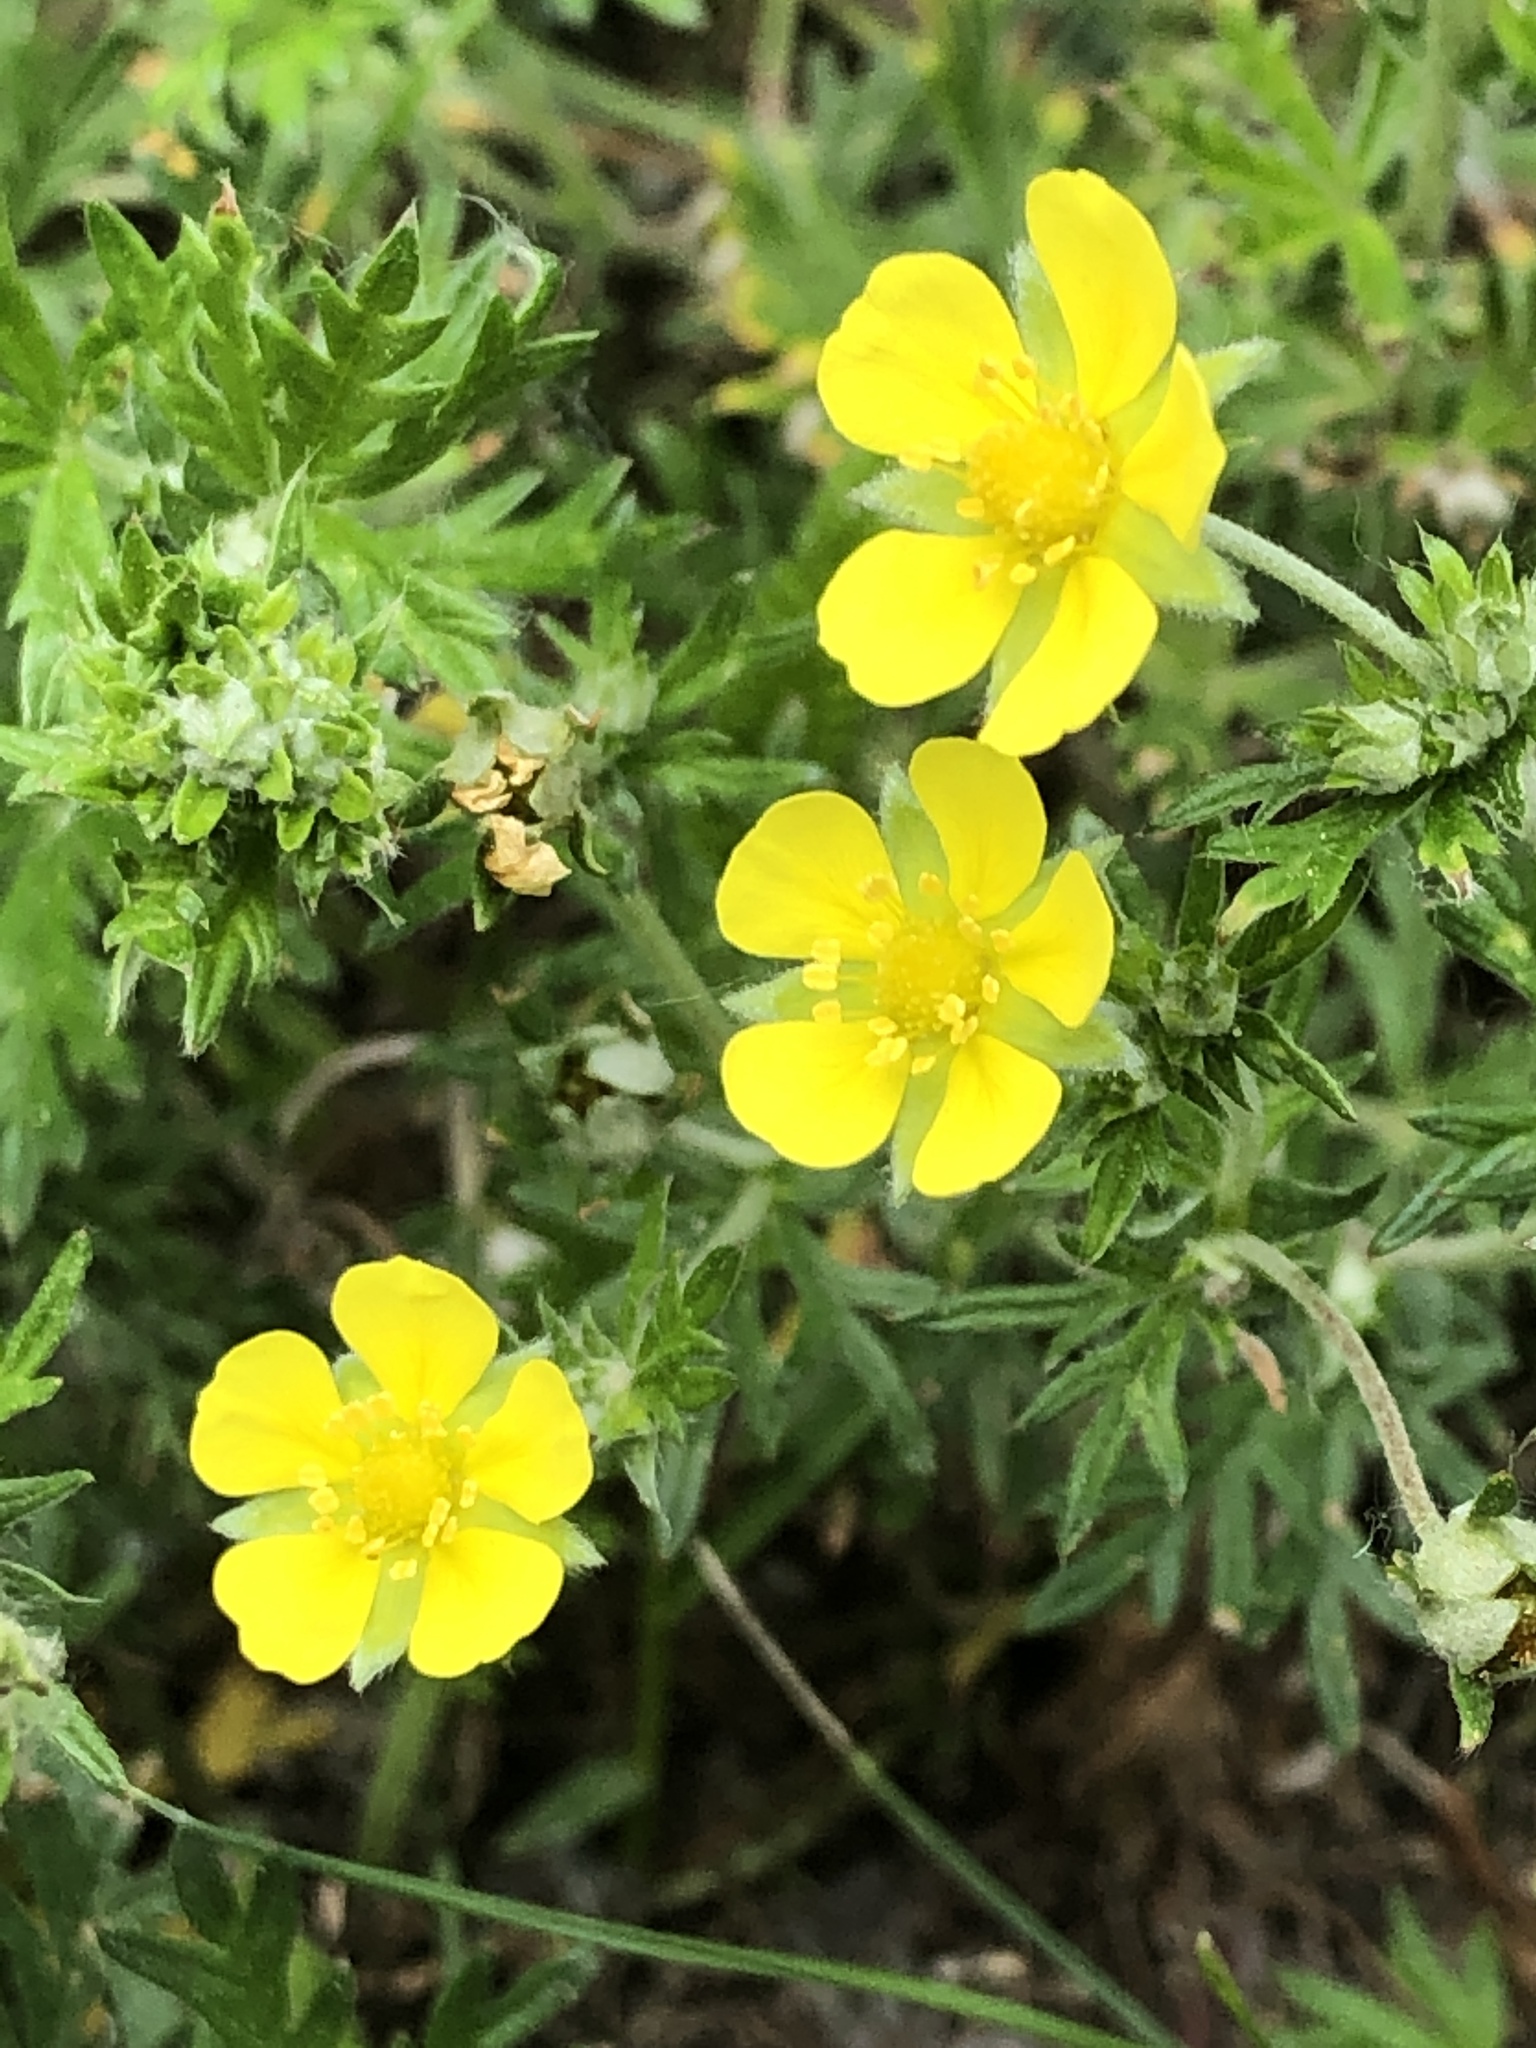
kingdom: Plantae
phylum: Tracheophyta
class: Magnoliopsida
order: Rosales
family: Rosaceae
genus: Potentilla
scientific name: Potentilla argentea
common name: Hoary cinquefoil
